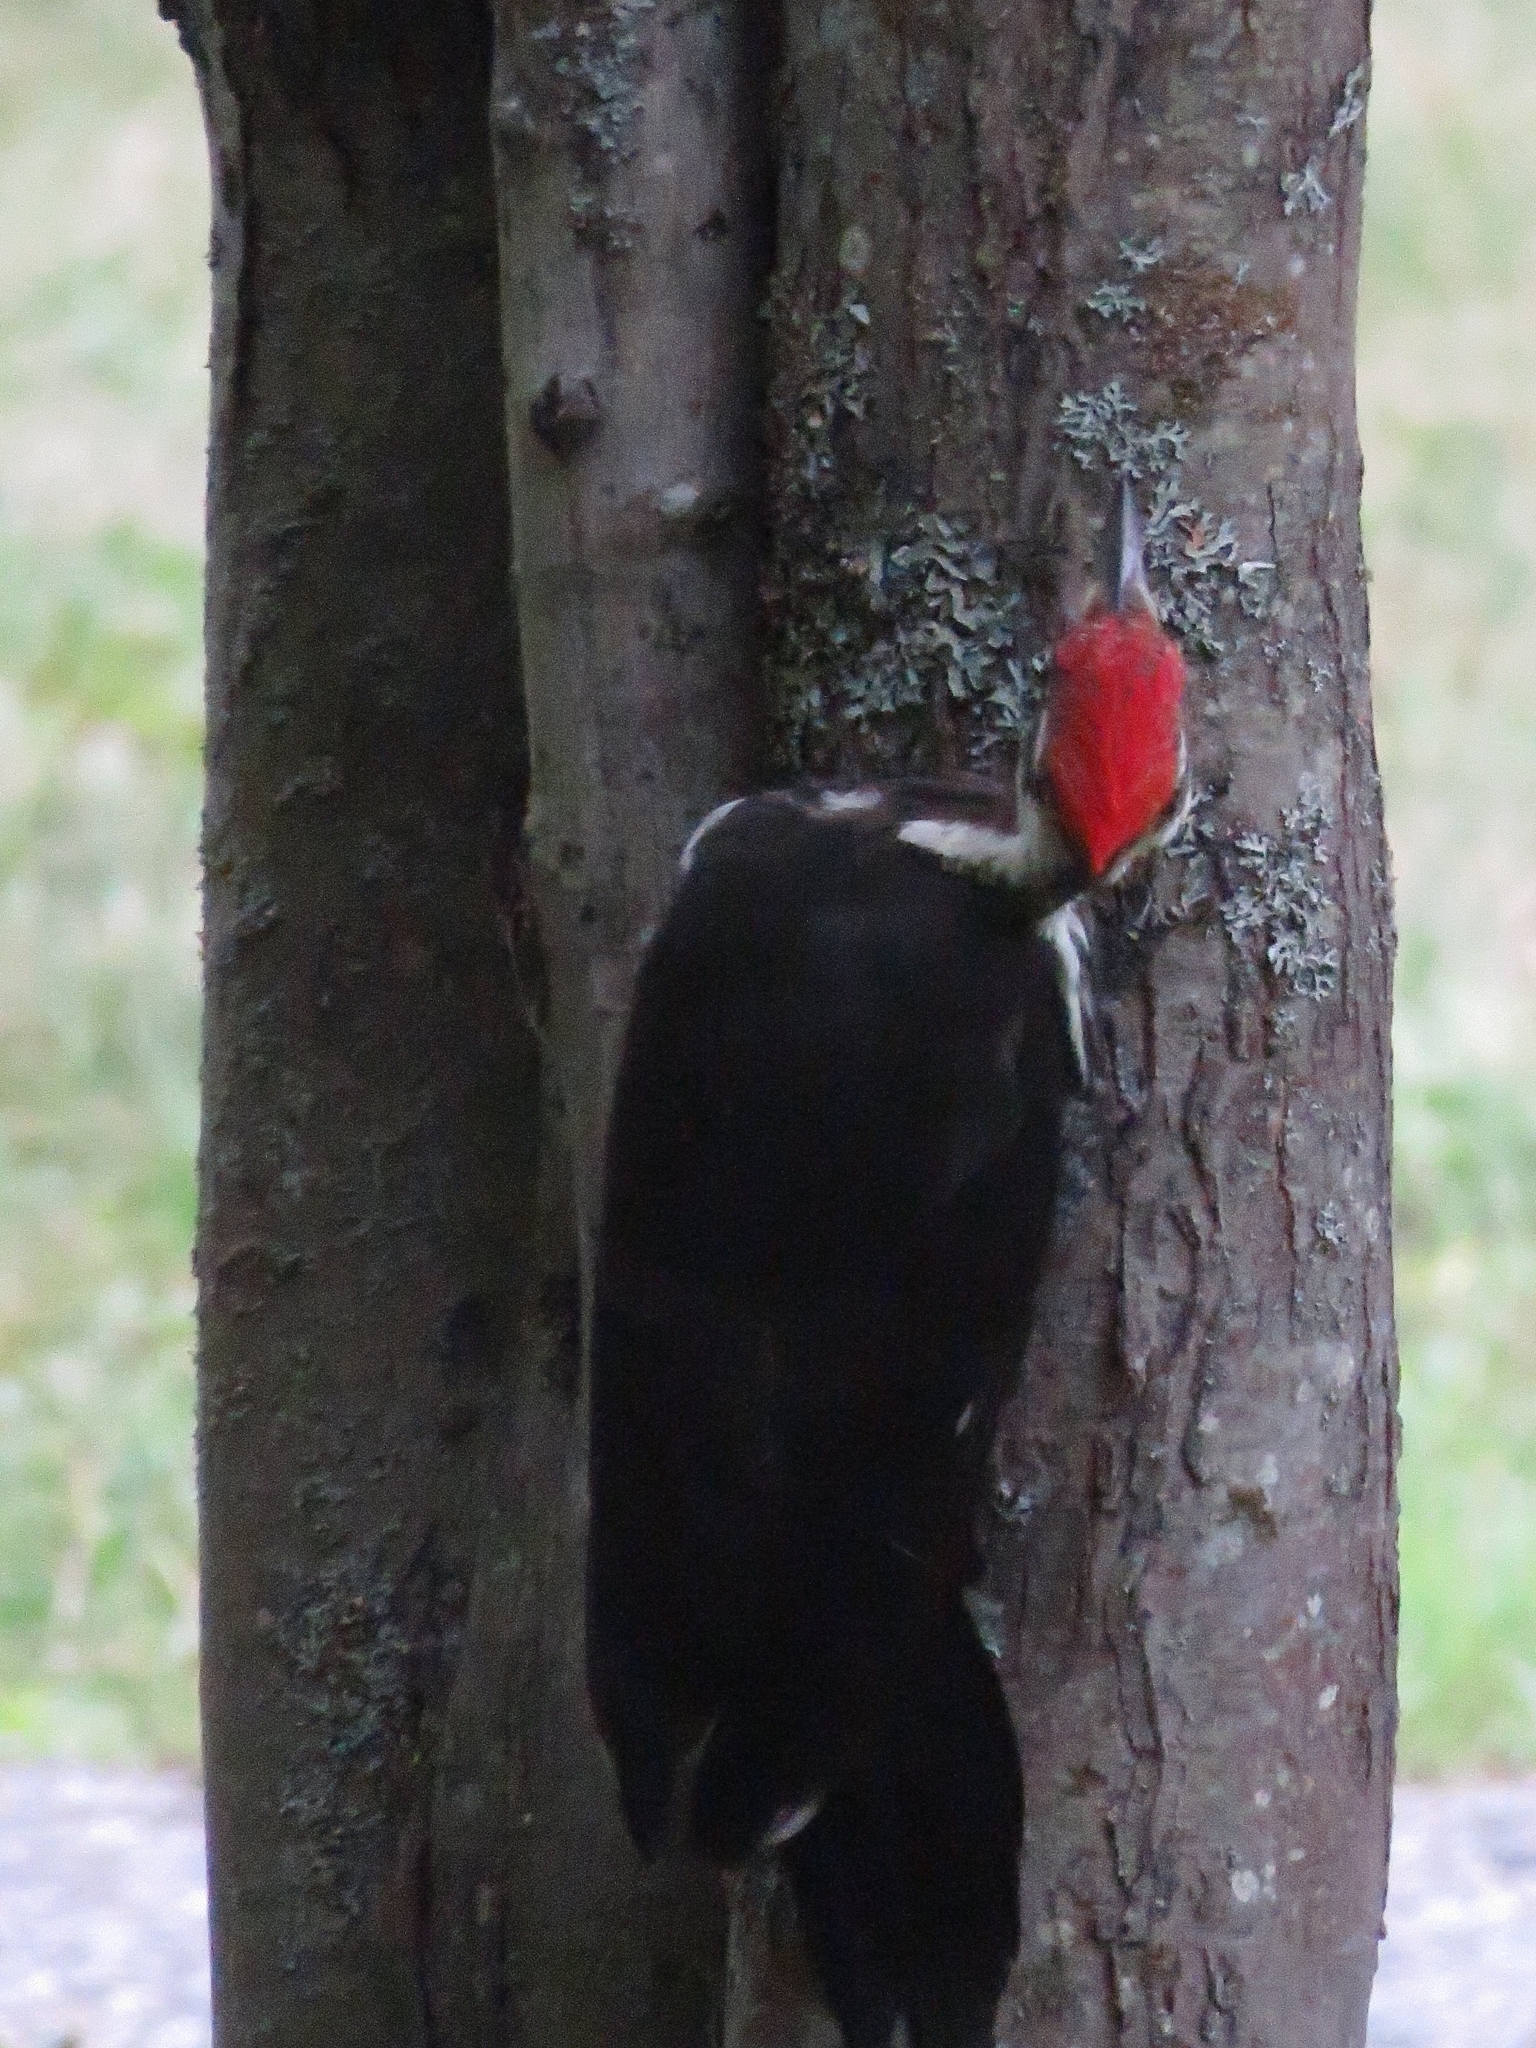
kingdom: Animalia
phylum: Chordata
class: Aves
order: Piciformes
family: Picidae
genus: Dryocopus
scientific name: Dryocopus pileatus
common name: Pileated woodpecker
